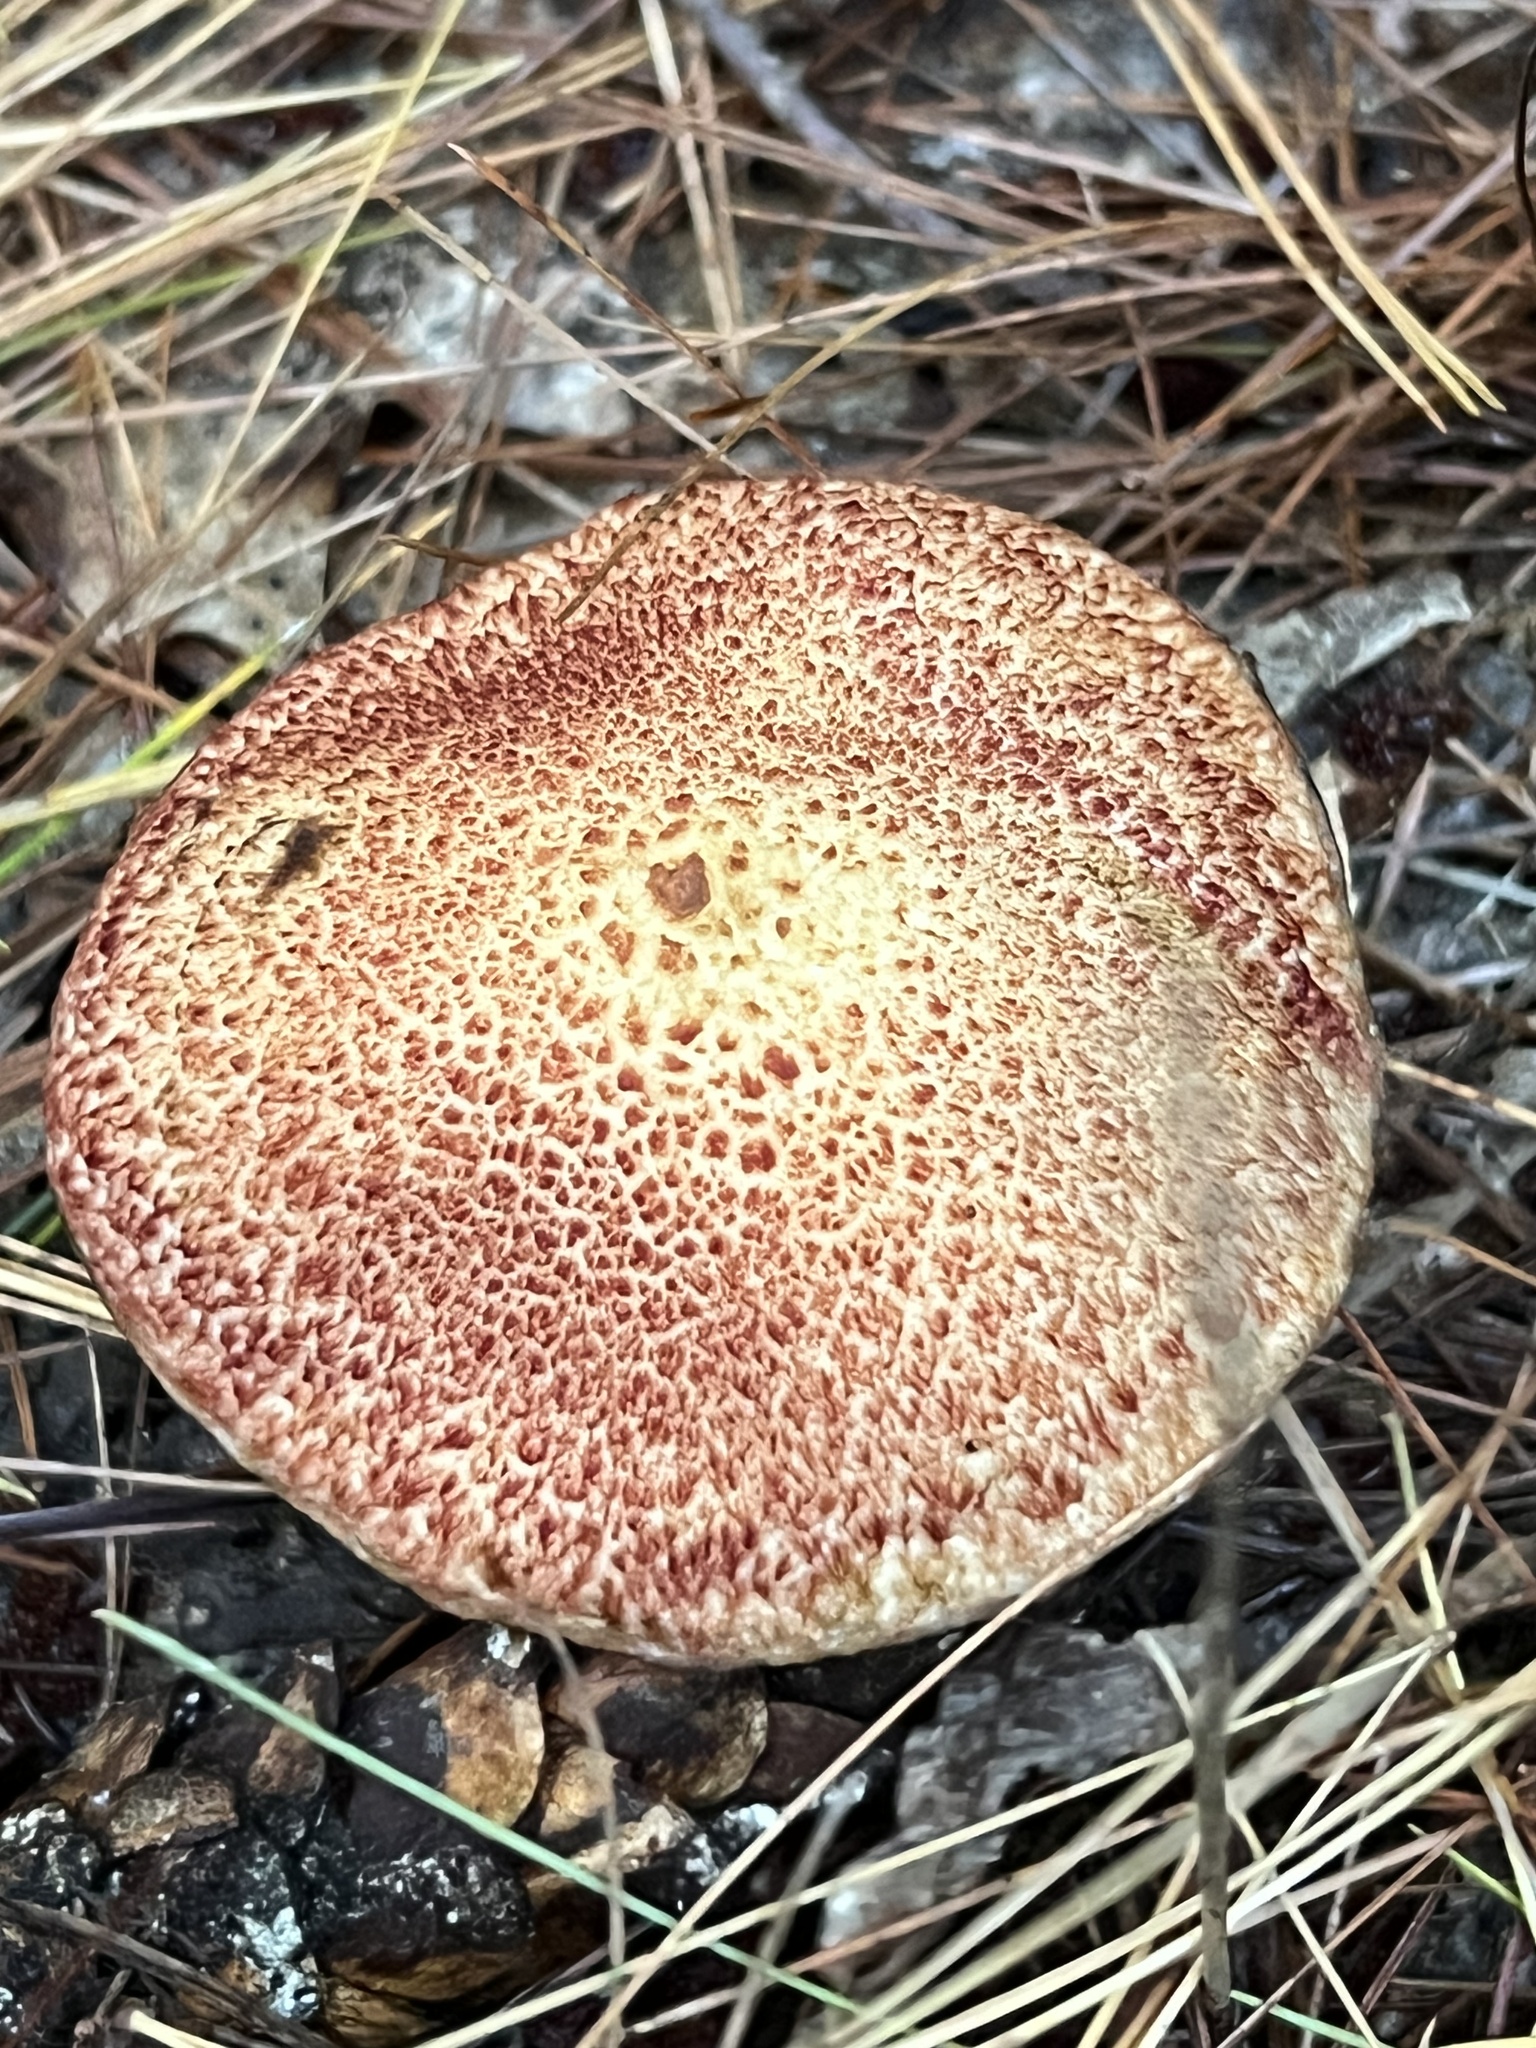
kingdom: Fungi
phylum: Basidiomycota
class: Agaricomycetes
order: Boletales
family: Suillaceae
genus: Suillus
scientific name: Suillus spraguei
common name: Painted suillus
